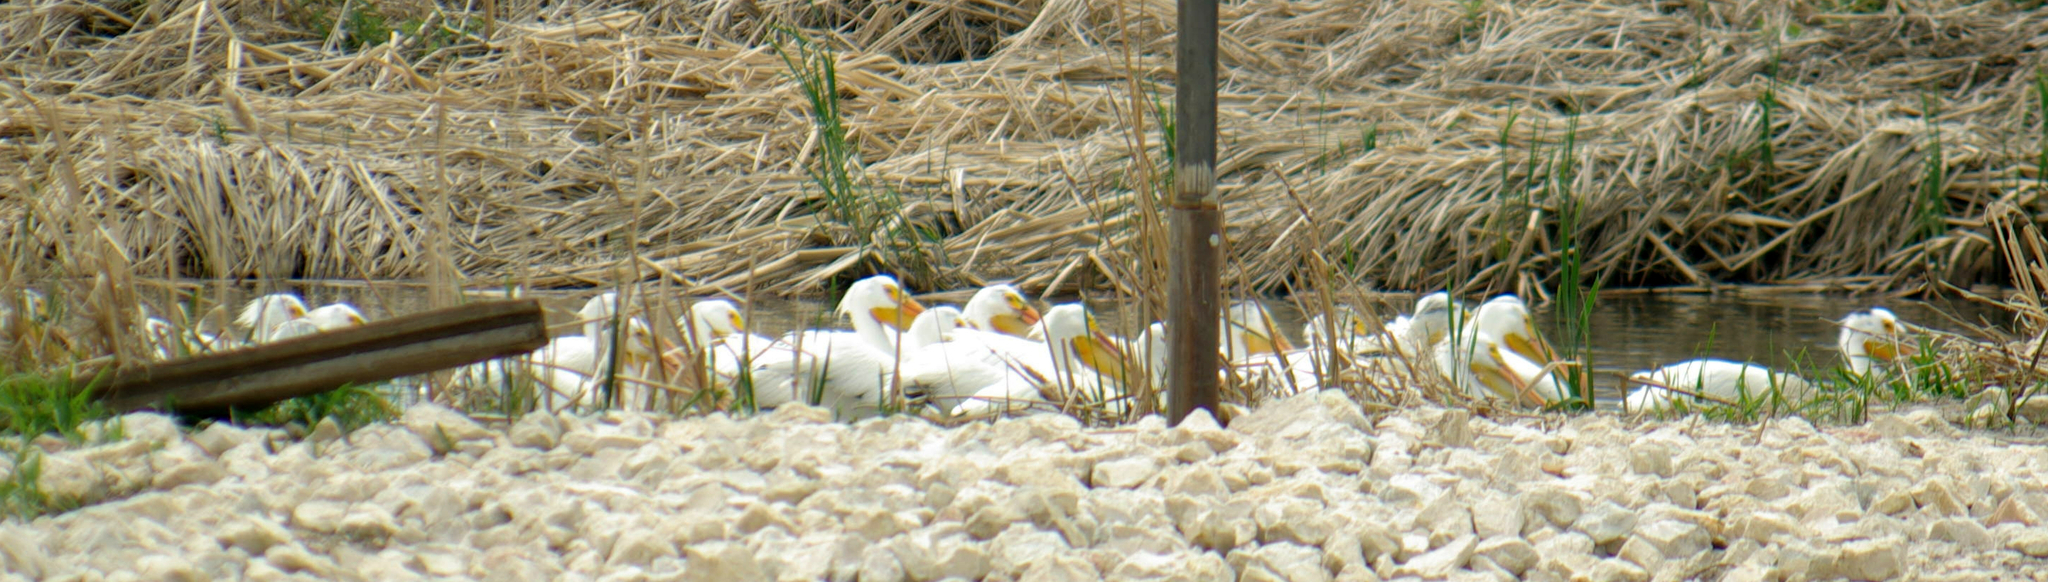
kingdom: Animalia
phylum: Chordata
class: Aves
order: Pelecaniformes
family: Pelecanidae
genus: Pelecanus
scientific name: Pelecanus erythrorhynchos
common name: American white pelican
